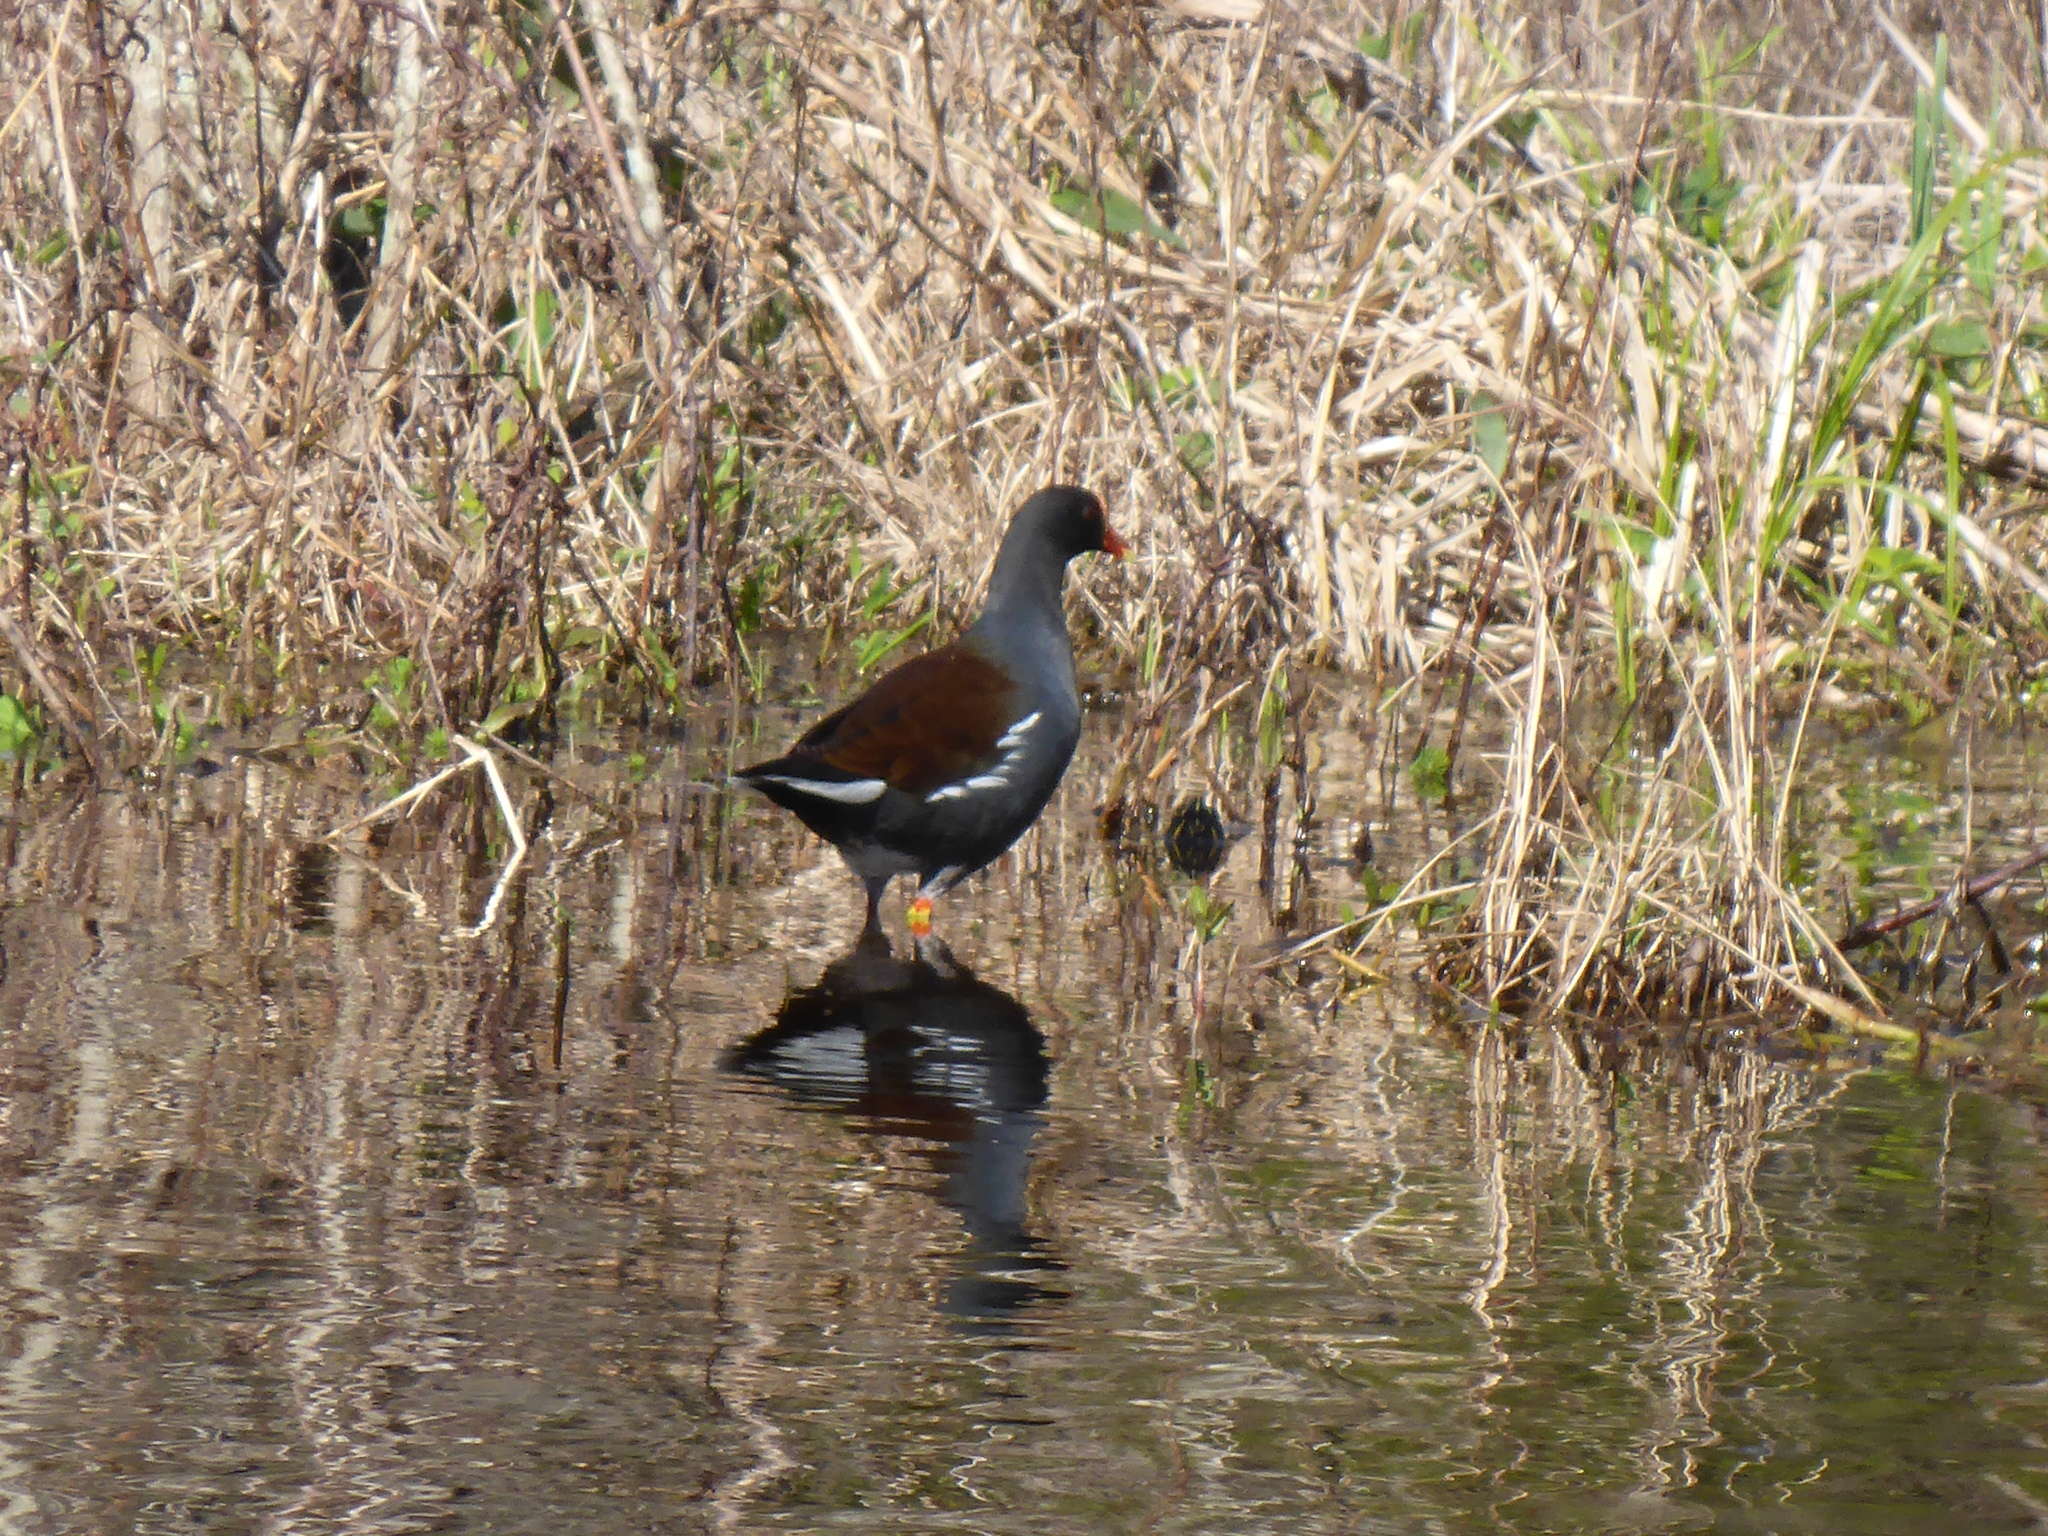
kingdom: Animalia
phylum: Chordata
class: Aves
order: Gruiformes
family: Rallidae
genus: Gallinula
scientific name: Gallinula chloropus
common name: Common moorhen
